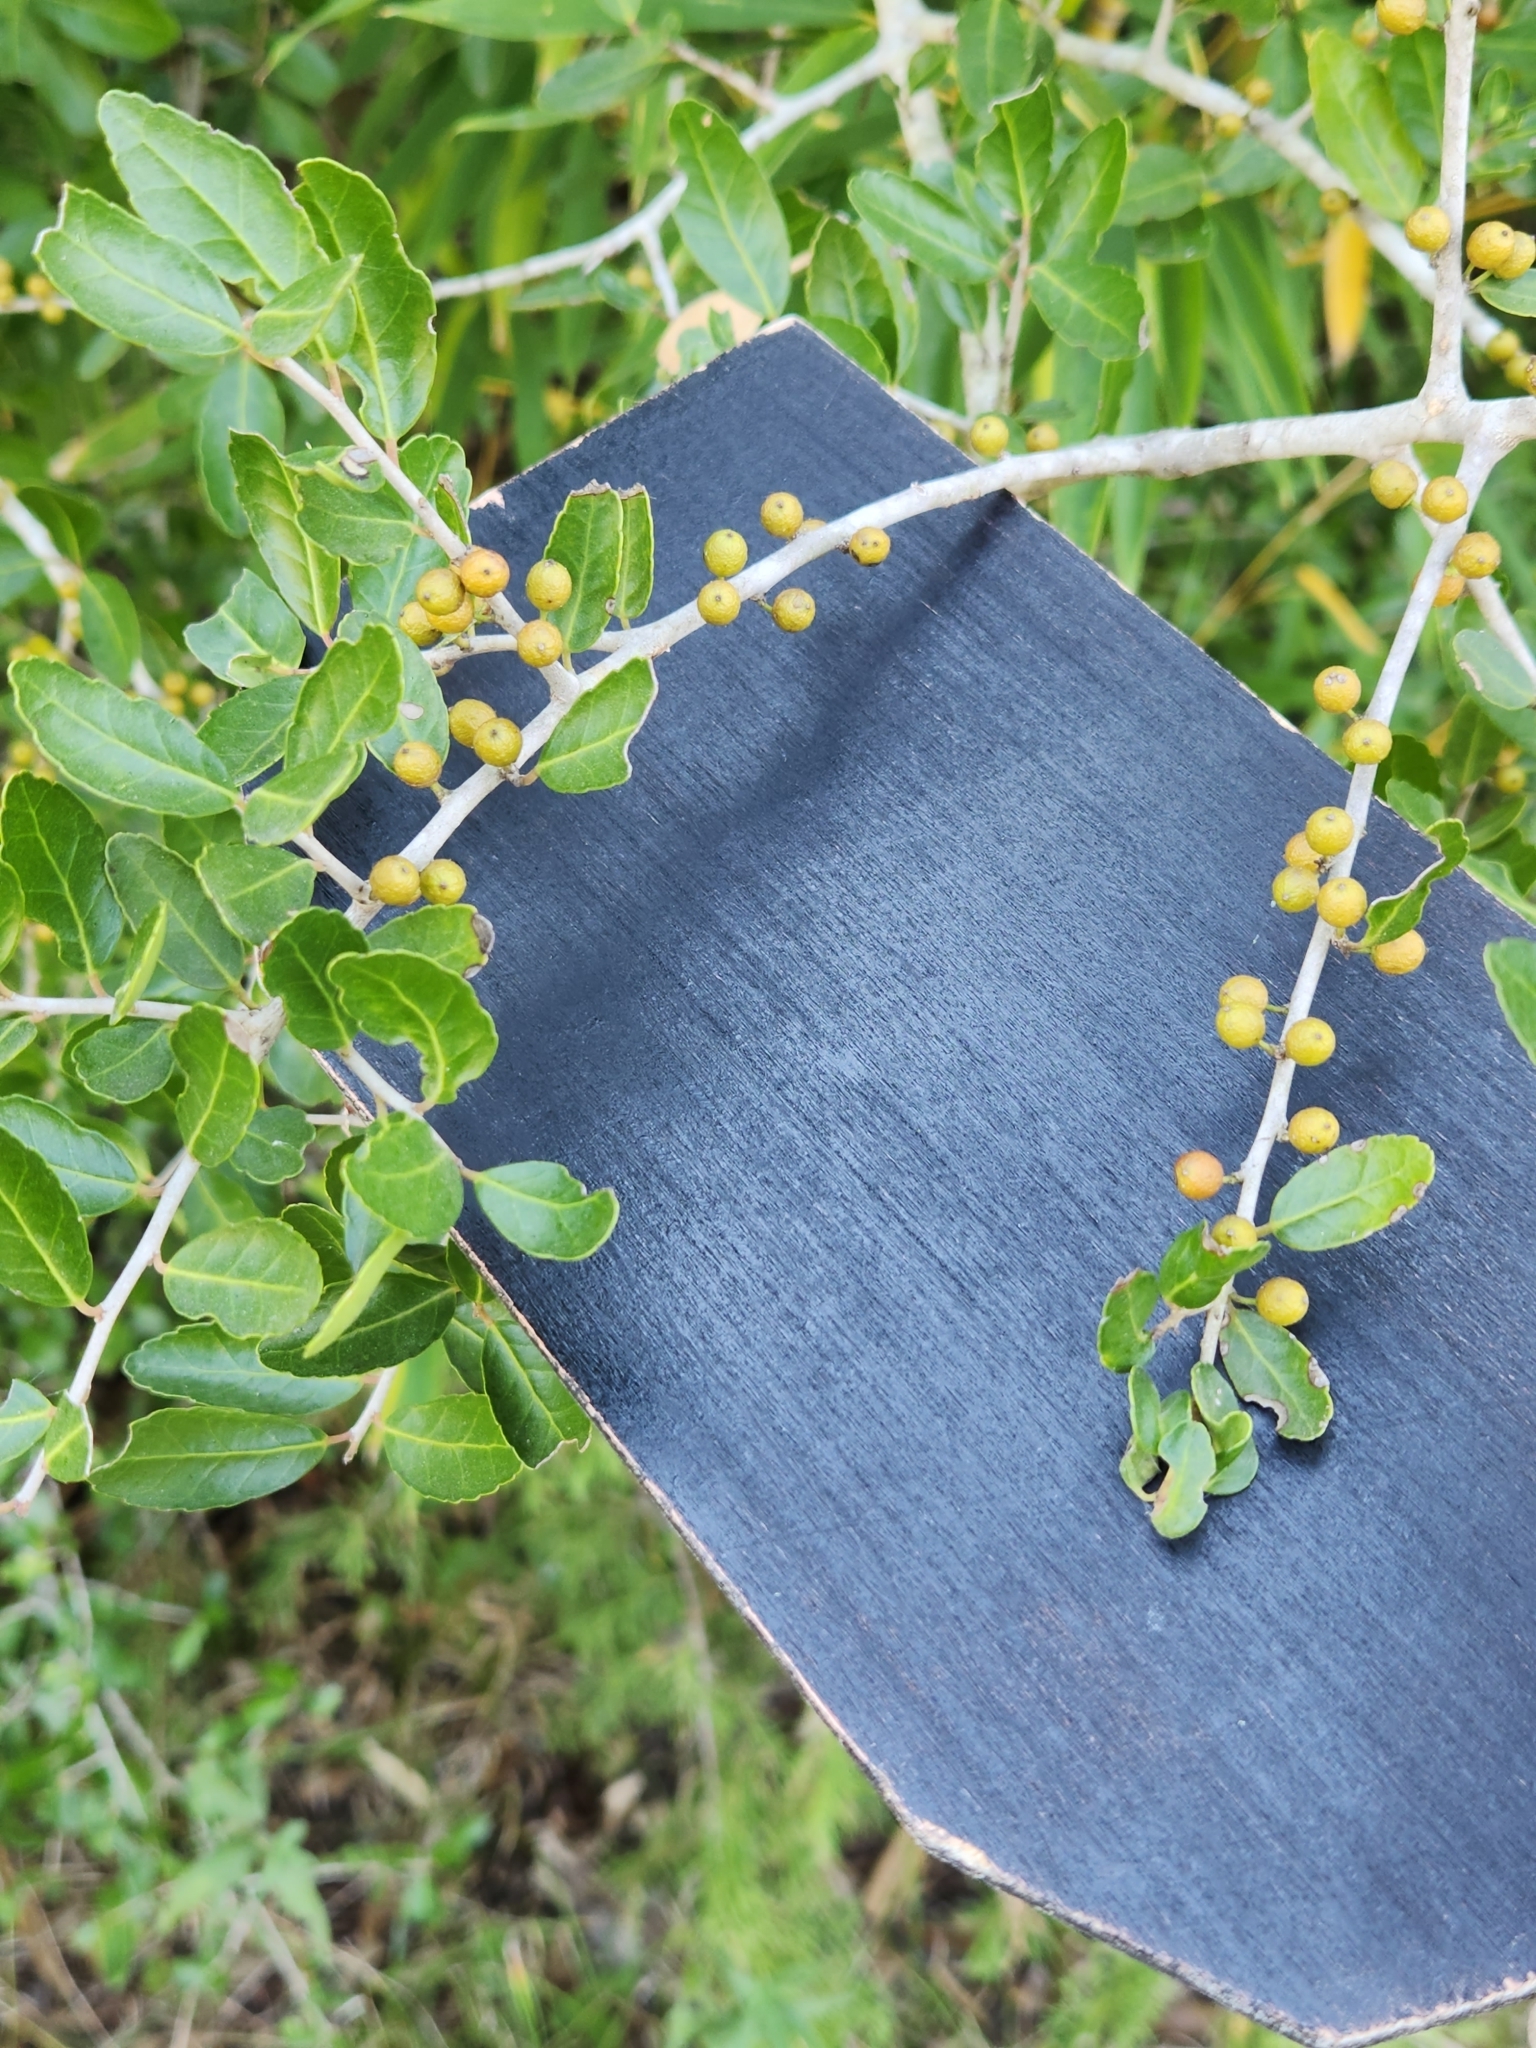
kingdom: Plantae
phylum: Tracheophyta
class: Magnoliopsida
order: Aquifoliales
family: Aquifoliaceae
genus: Ilex
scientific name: Ilex vomitoria
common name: Yaupon holly
